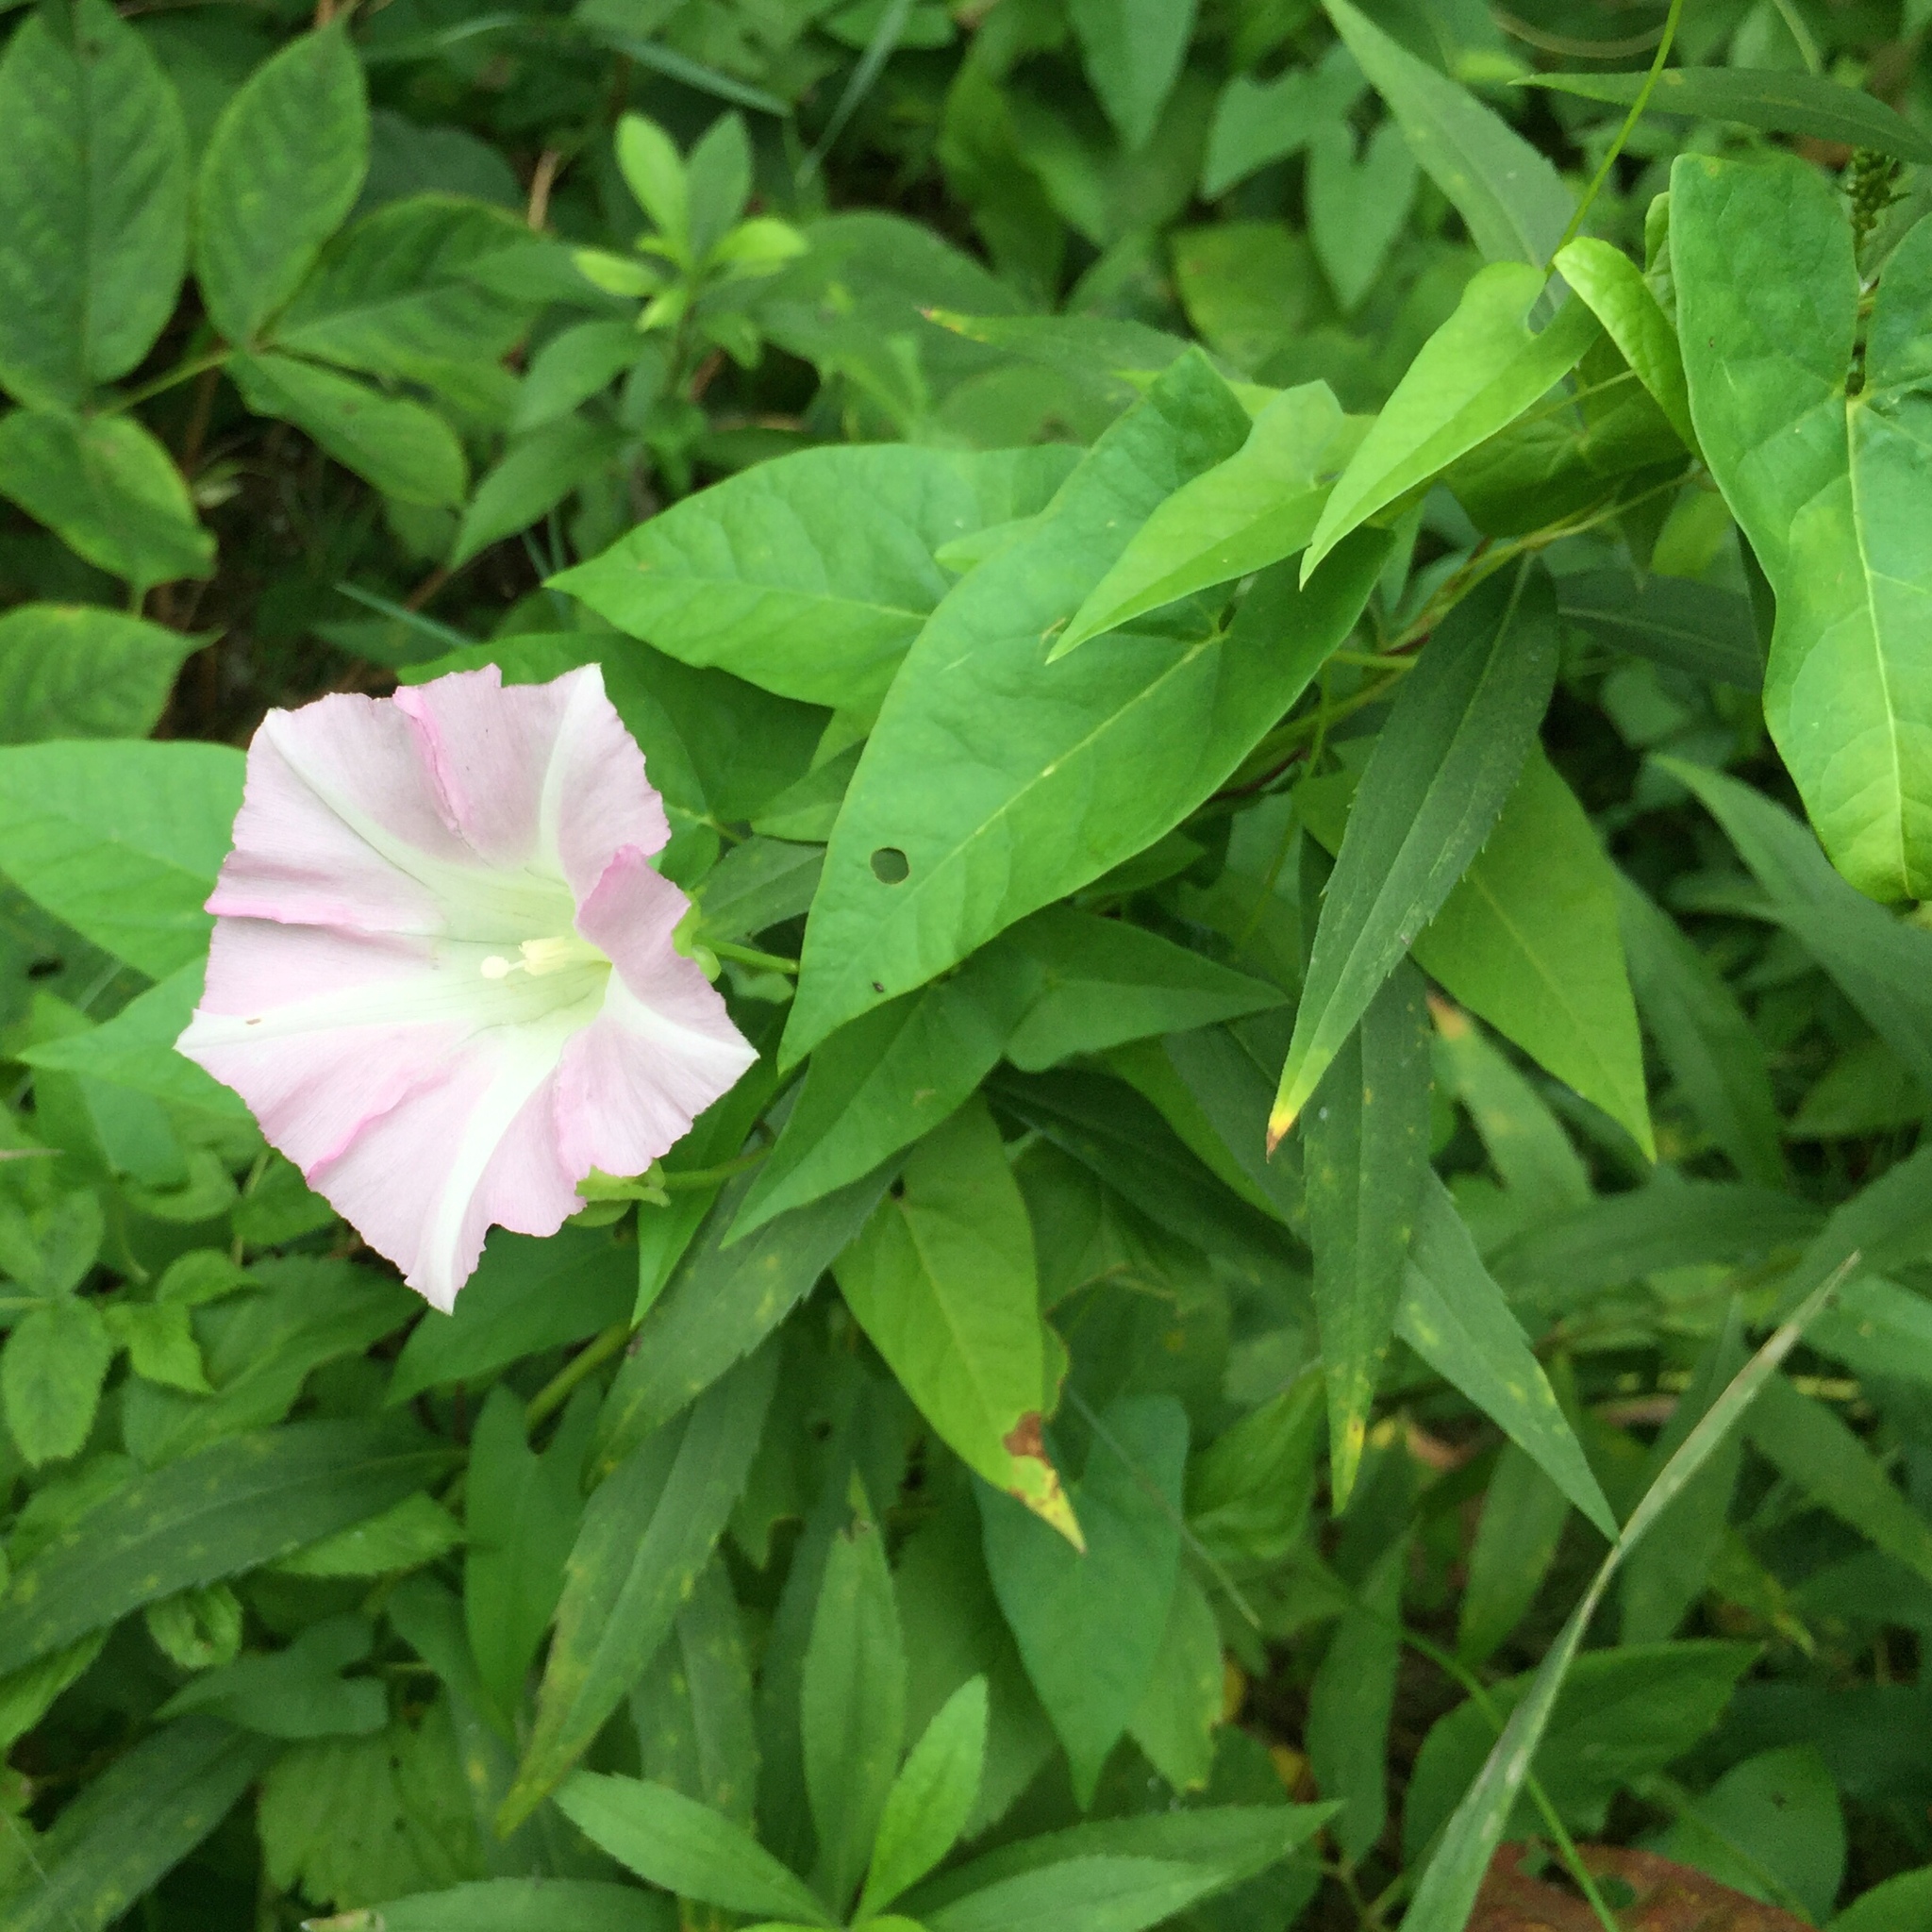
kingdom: Plantae
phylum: Tracheophyta
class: Magnoliopsida
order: Solanales
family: Convolvulaceae
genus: Calystegia
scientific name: Calystegia sepium
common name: Hedge bindweed
